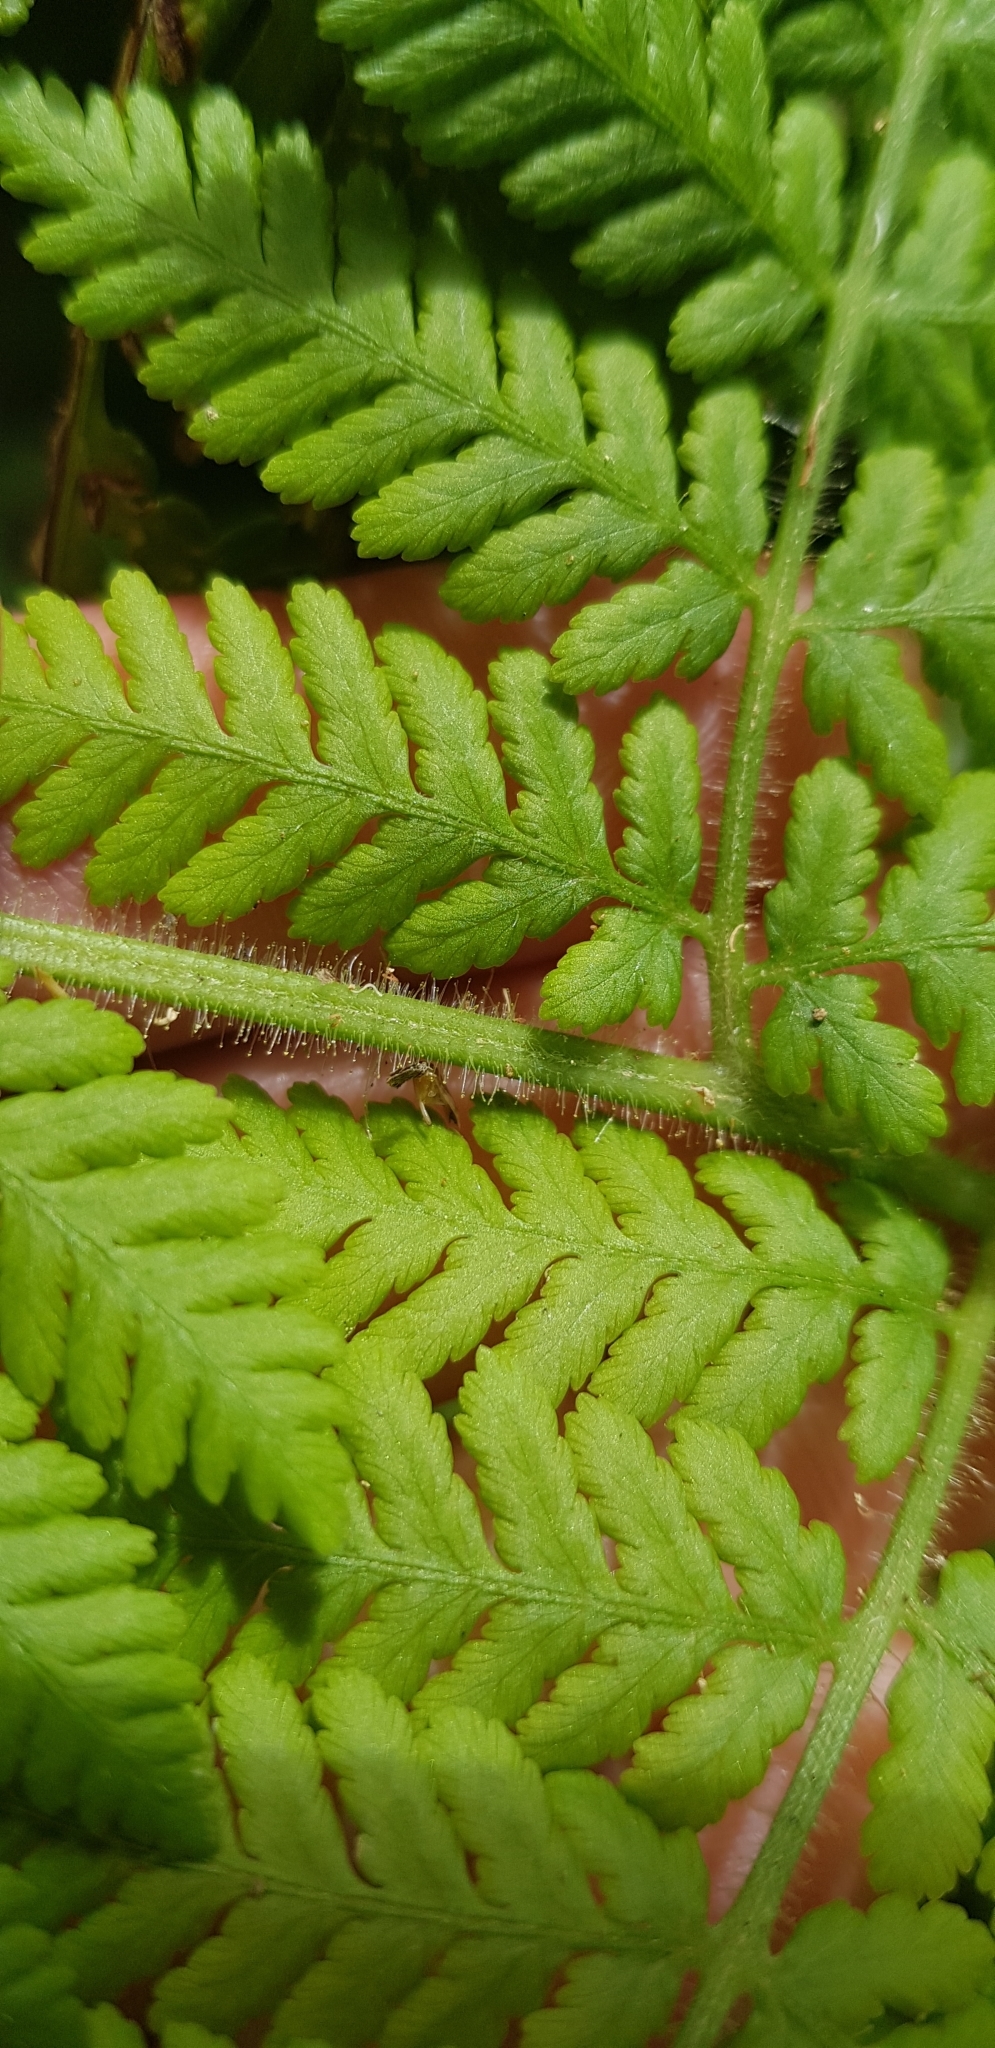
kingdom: Plantae
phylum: Tracheophyta
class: Polypodiopsida
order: Polypodiales
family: Dennstaedtiaceae
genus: Hypolepis
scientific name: Hypolepis dicksonioides
